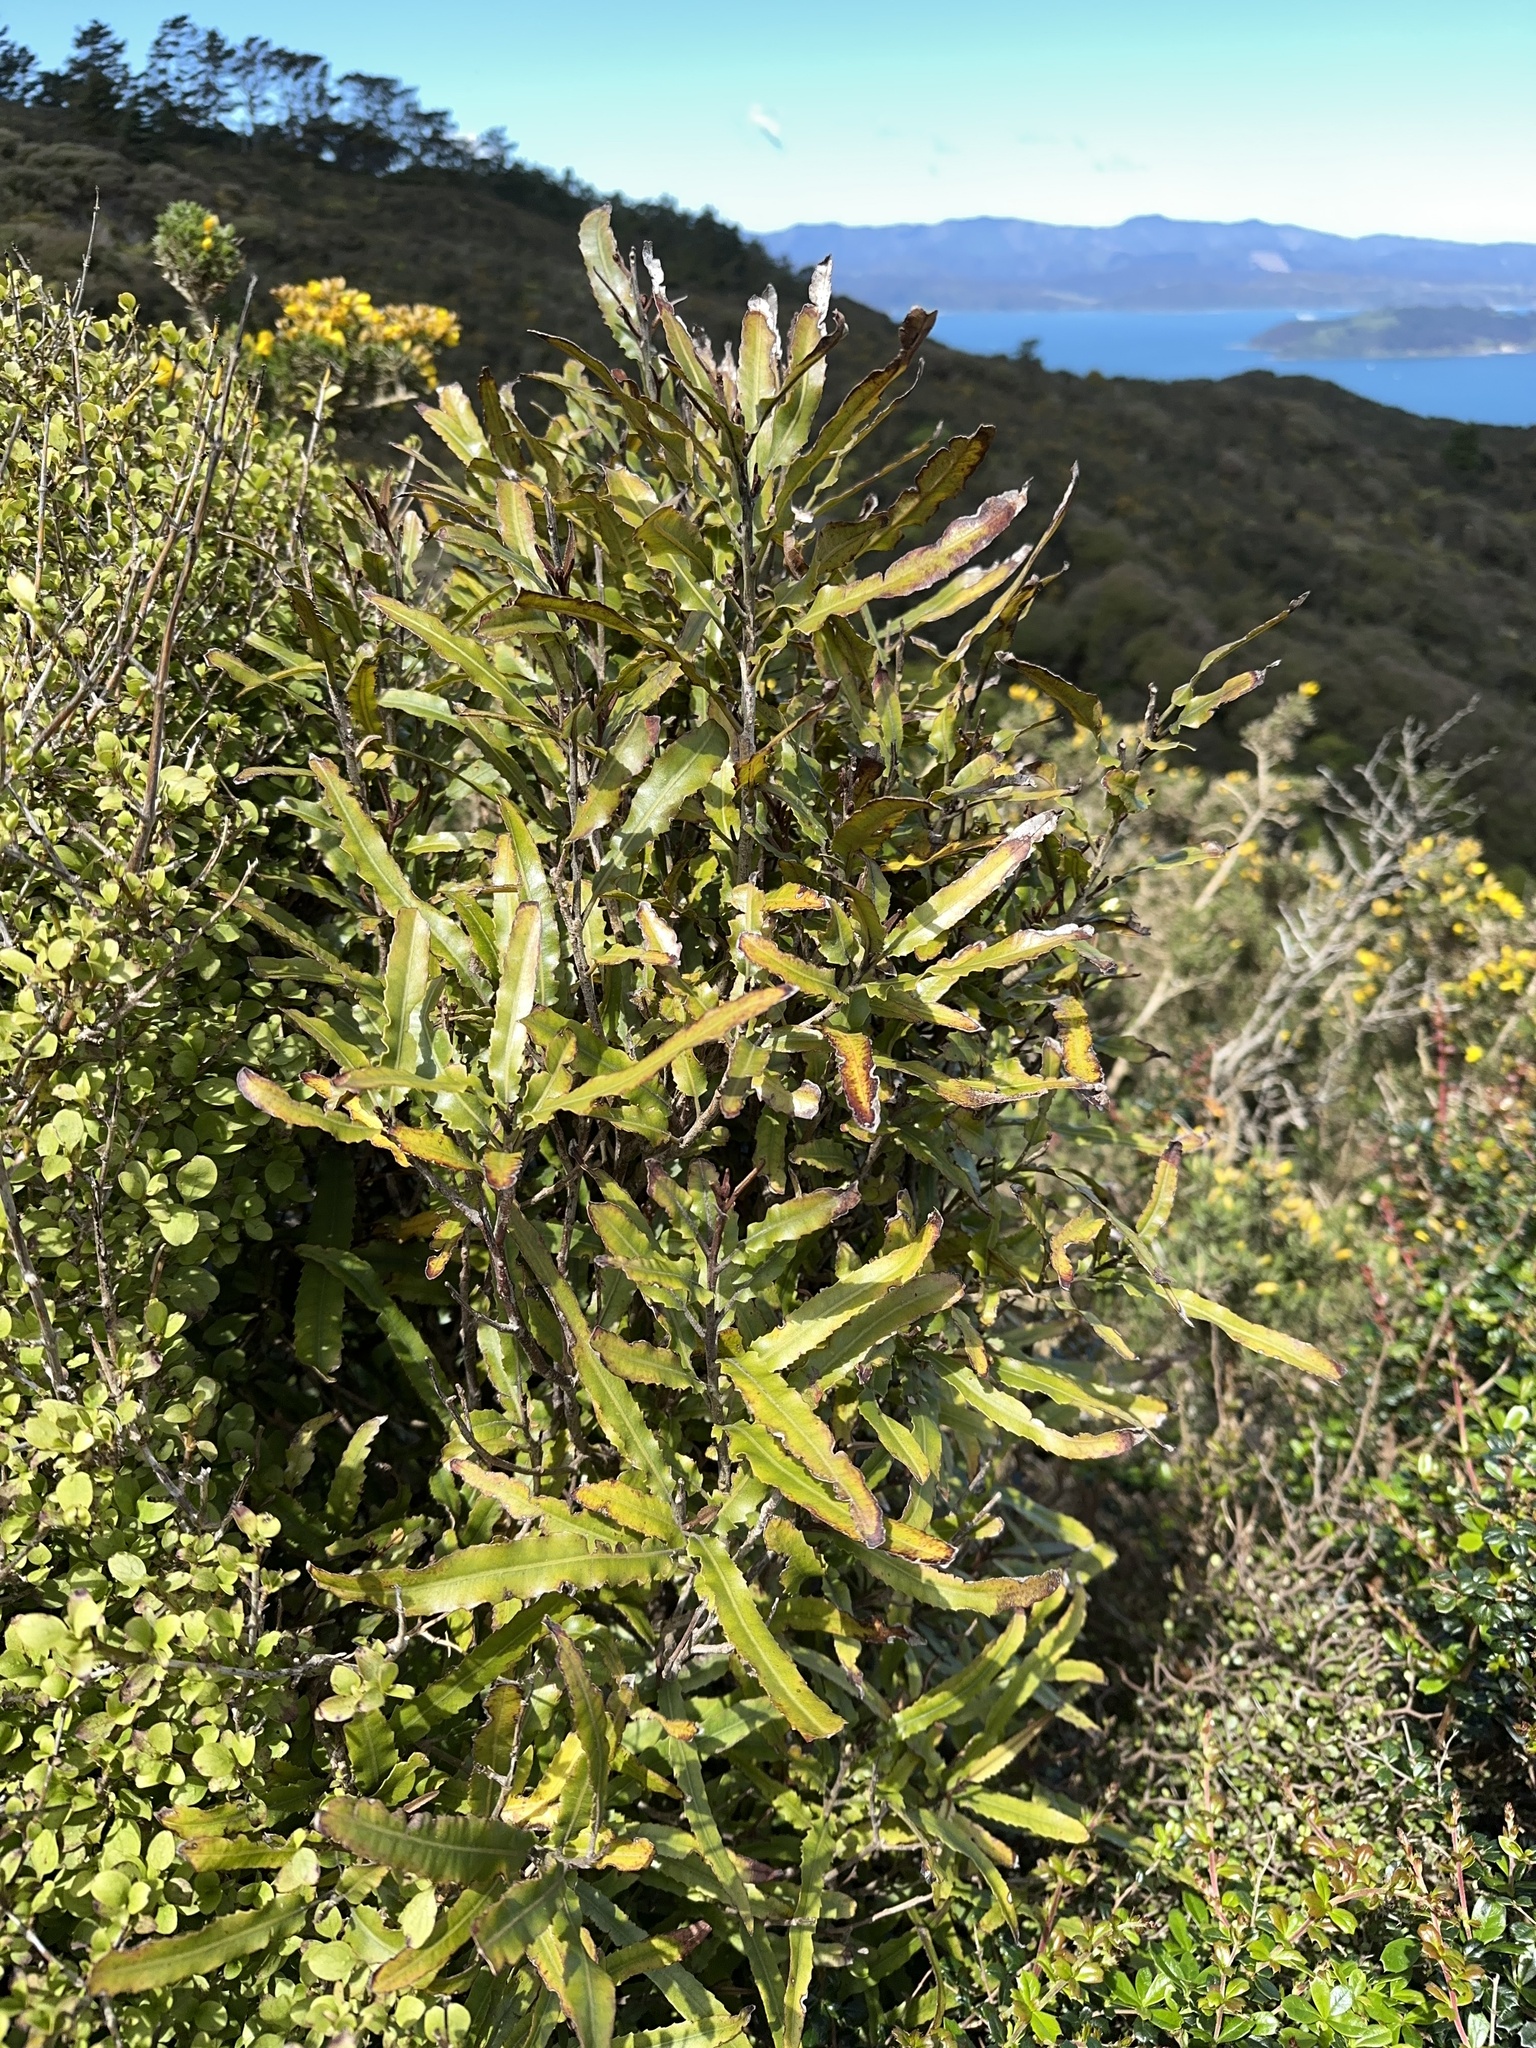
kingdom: Plantae
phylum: Tracheophyta
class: Magnoliopsida
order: Proteales
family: Proteaceae
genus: Knightia
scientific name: Knightia excelsa
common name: New zealand-honeysuckle
